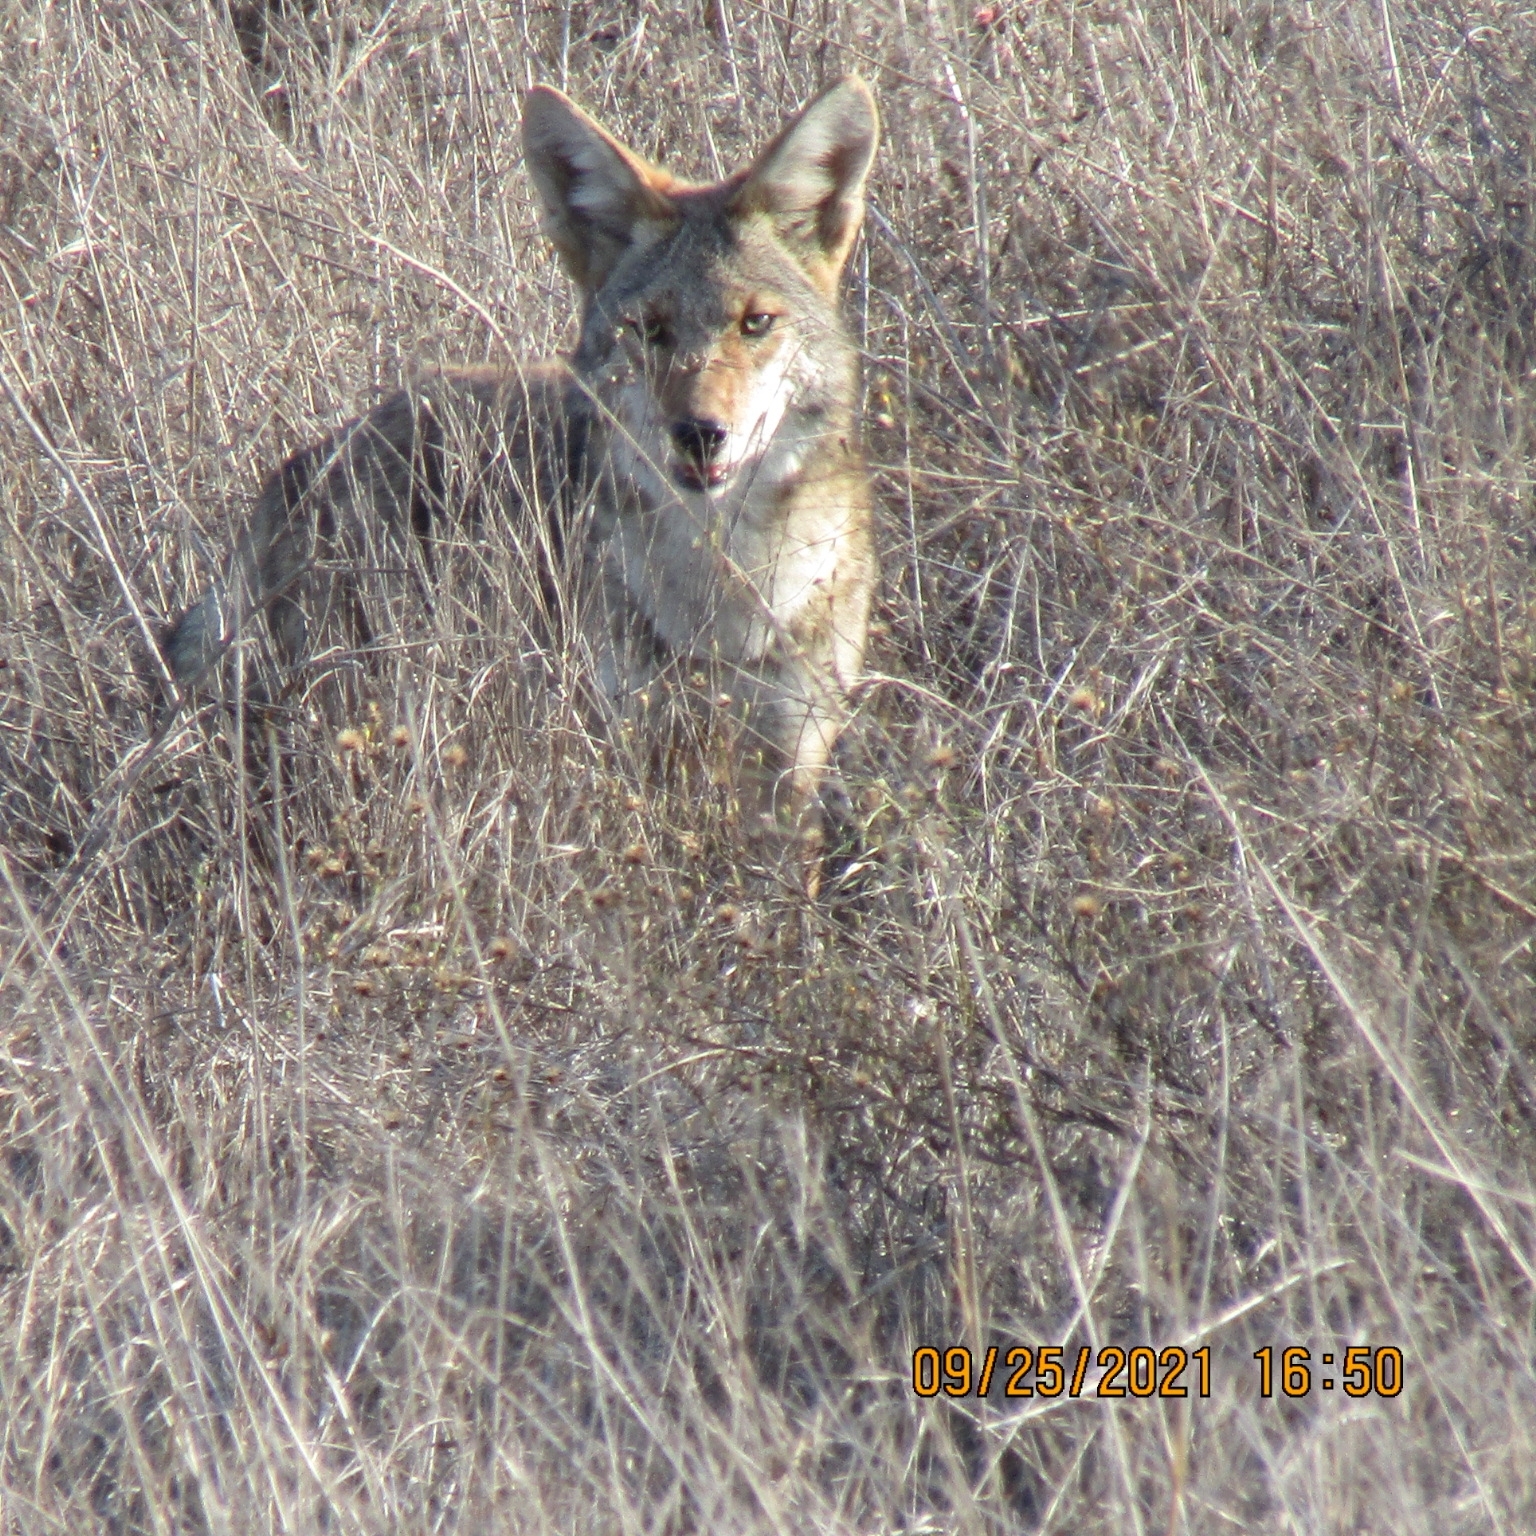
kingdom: Animalia
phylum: Chordata
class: Mammalia
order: Carnivora
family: Canidae
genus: Canis
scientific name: Canis latrans
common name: Coyote
